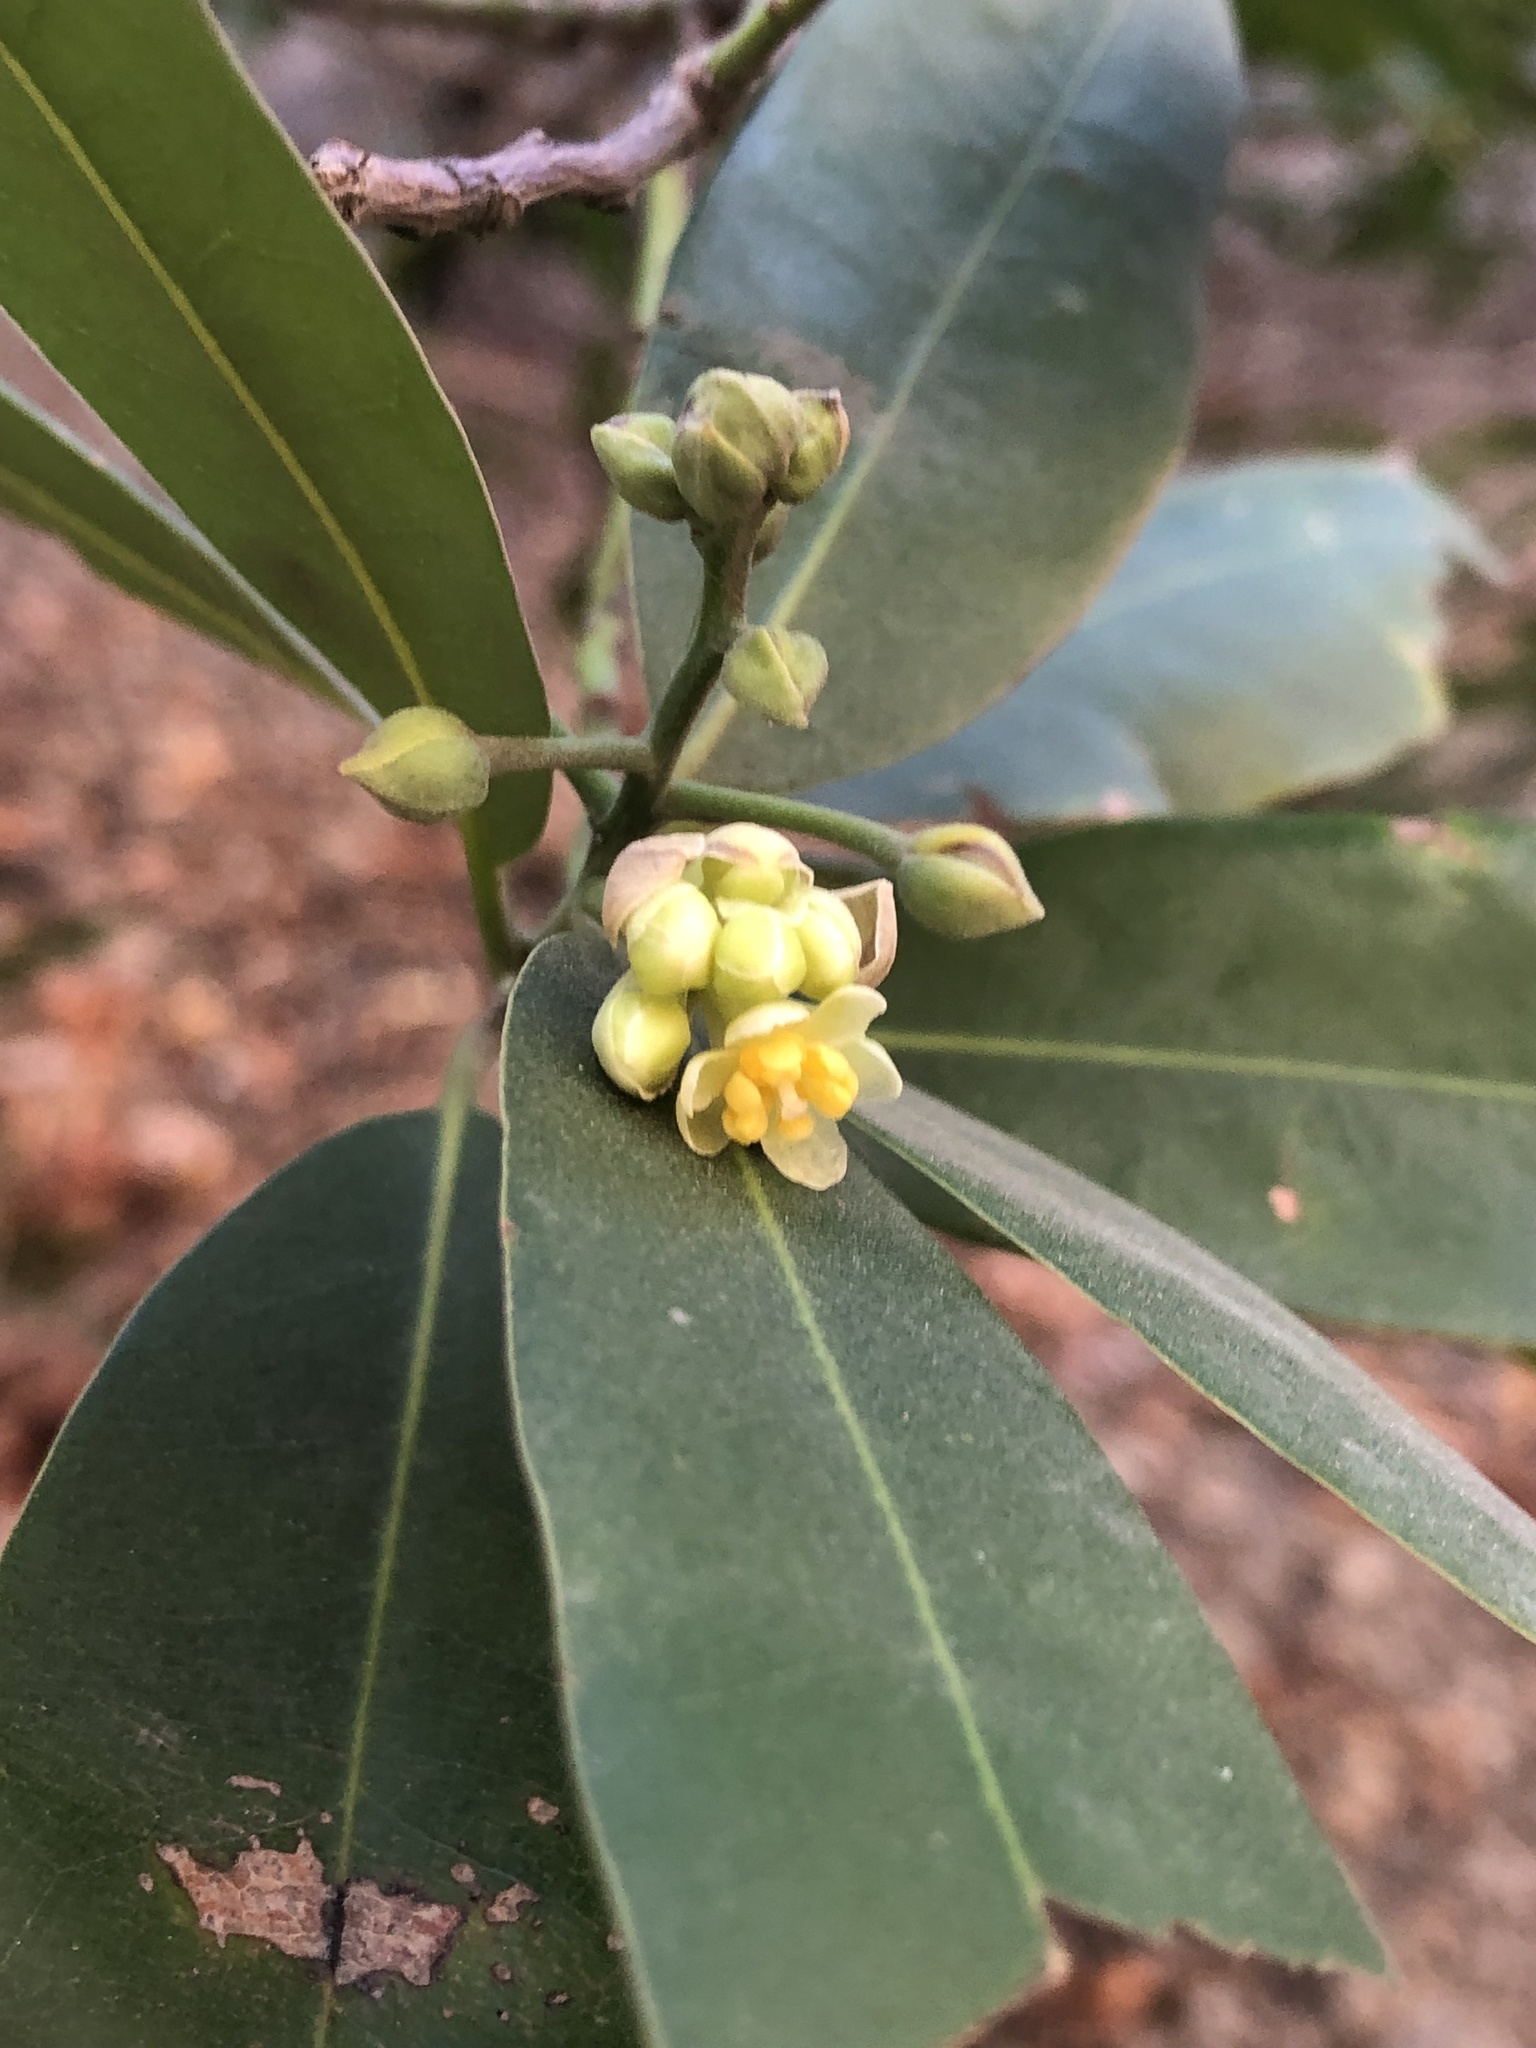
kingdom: Plantae
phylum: Tracheophyta
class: Magnoliopsida
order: Laurales
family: Lauraceae
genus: Umbellularia
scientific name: Umbellularia californica
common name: California bay
